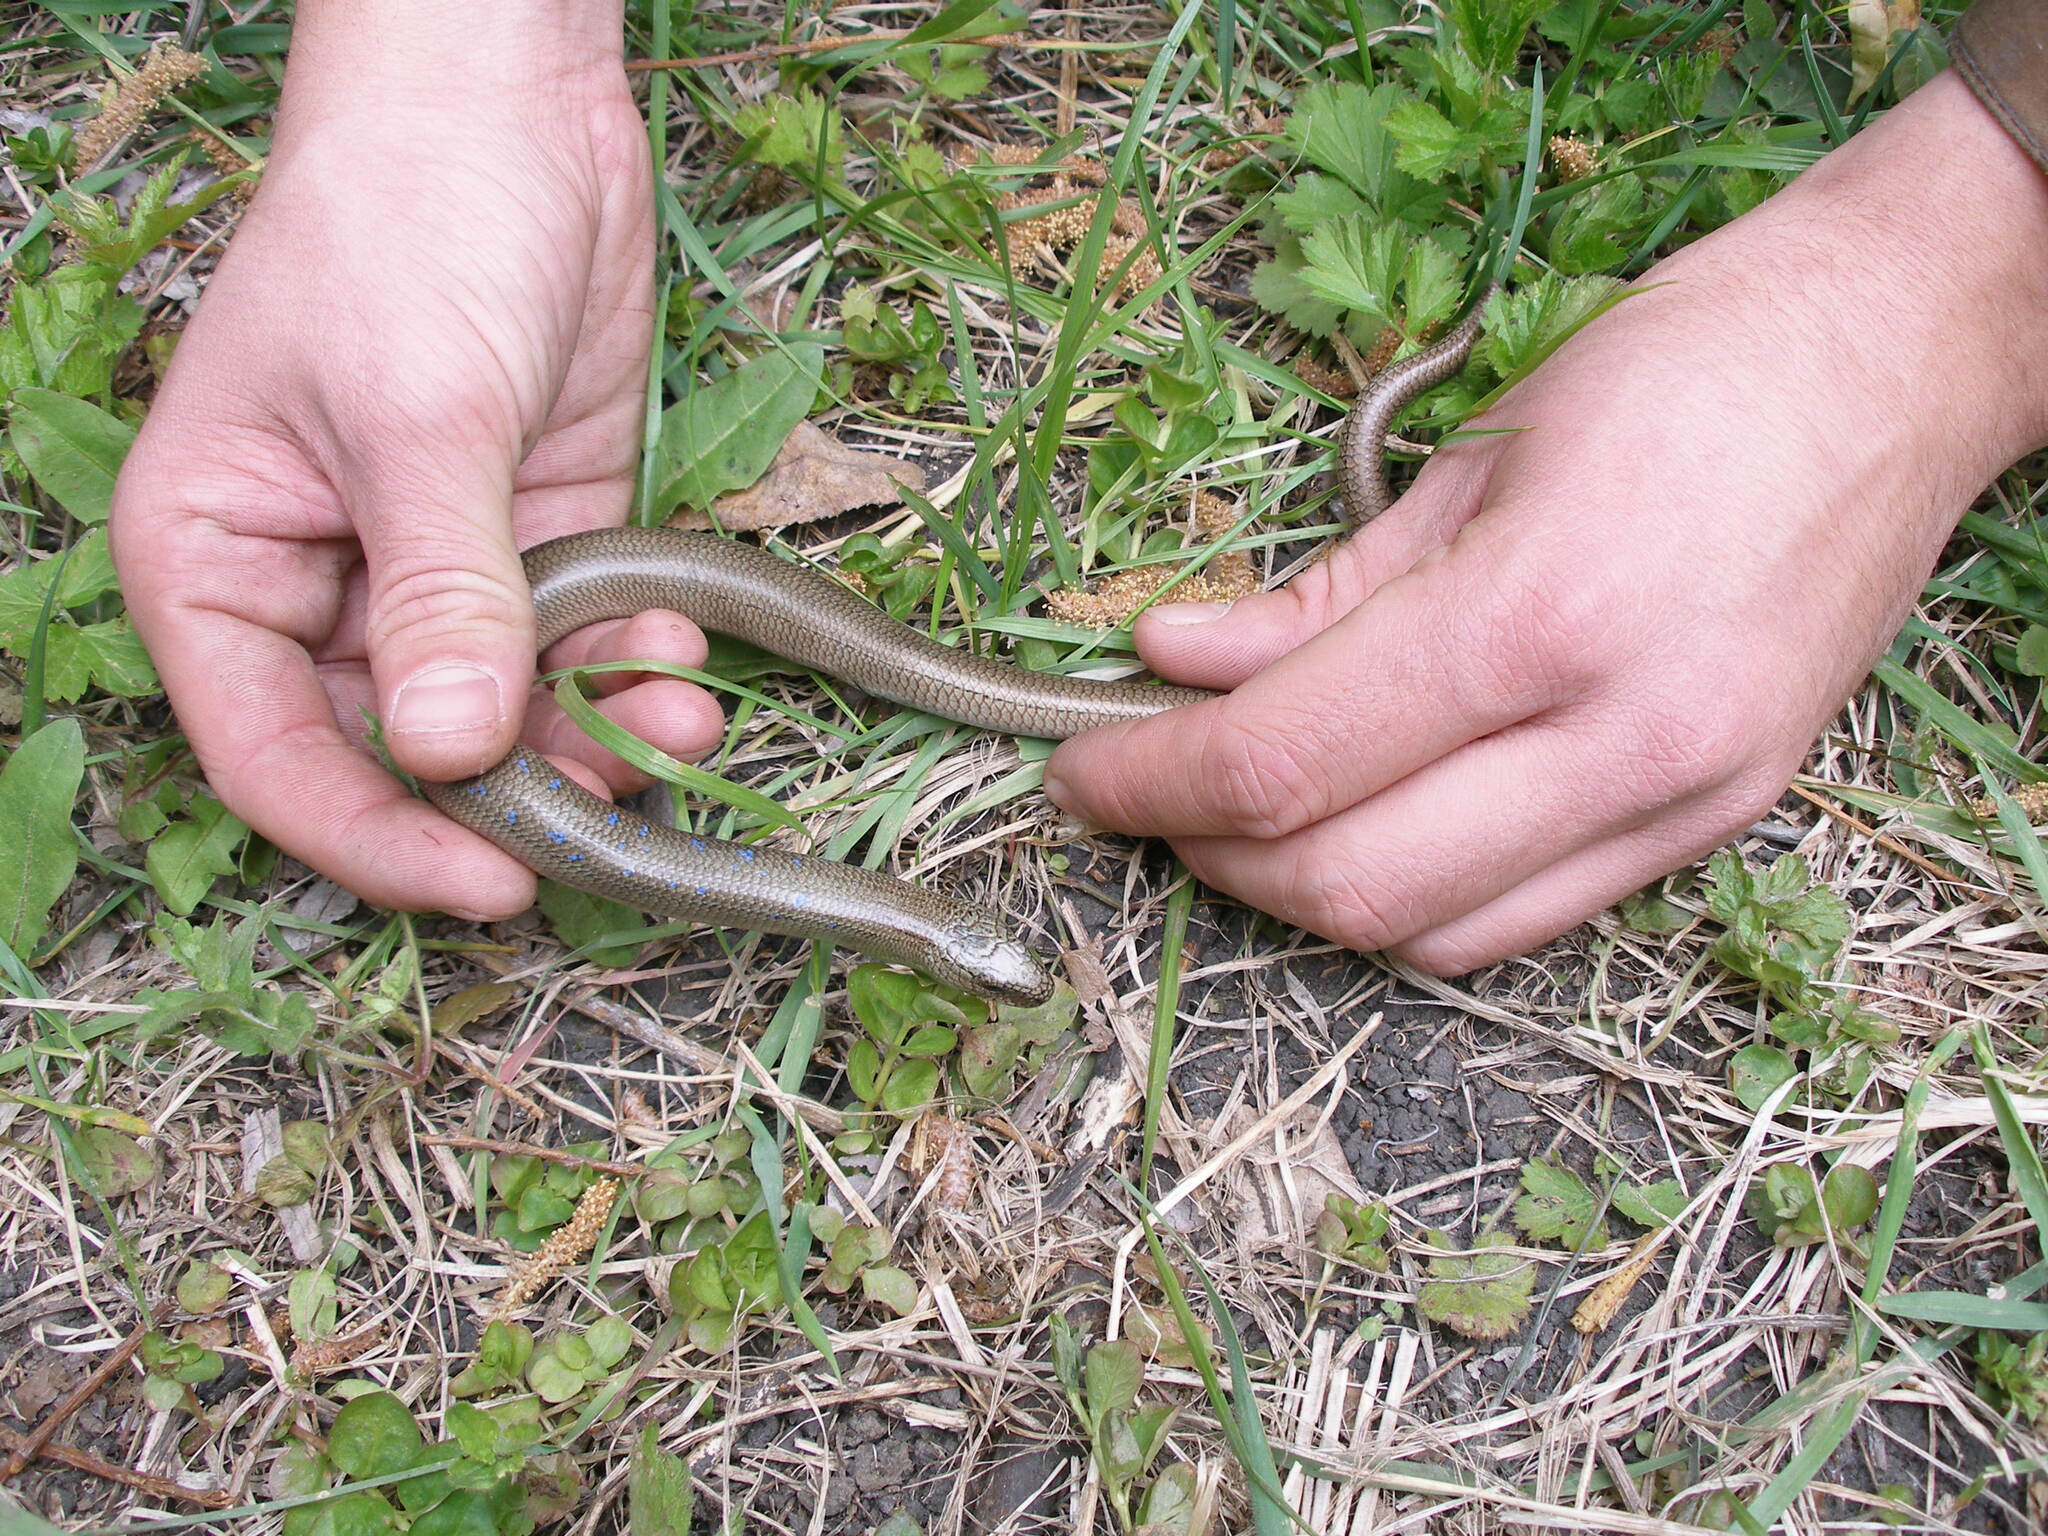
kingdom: Animalia
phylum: Chordata
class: Squamata
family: Anguidae
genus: Anguis
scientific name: Anguis colchica
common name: Slow worm
